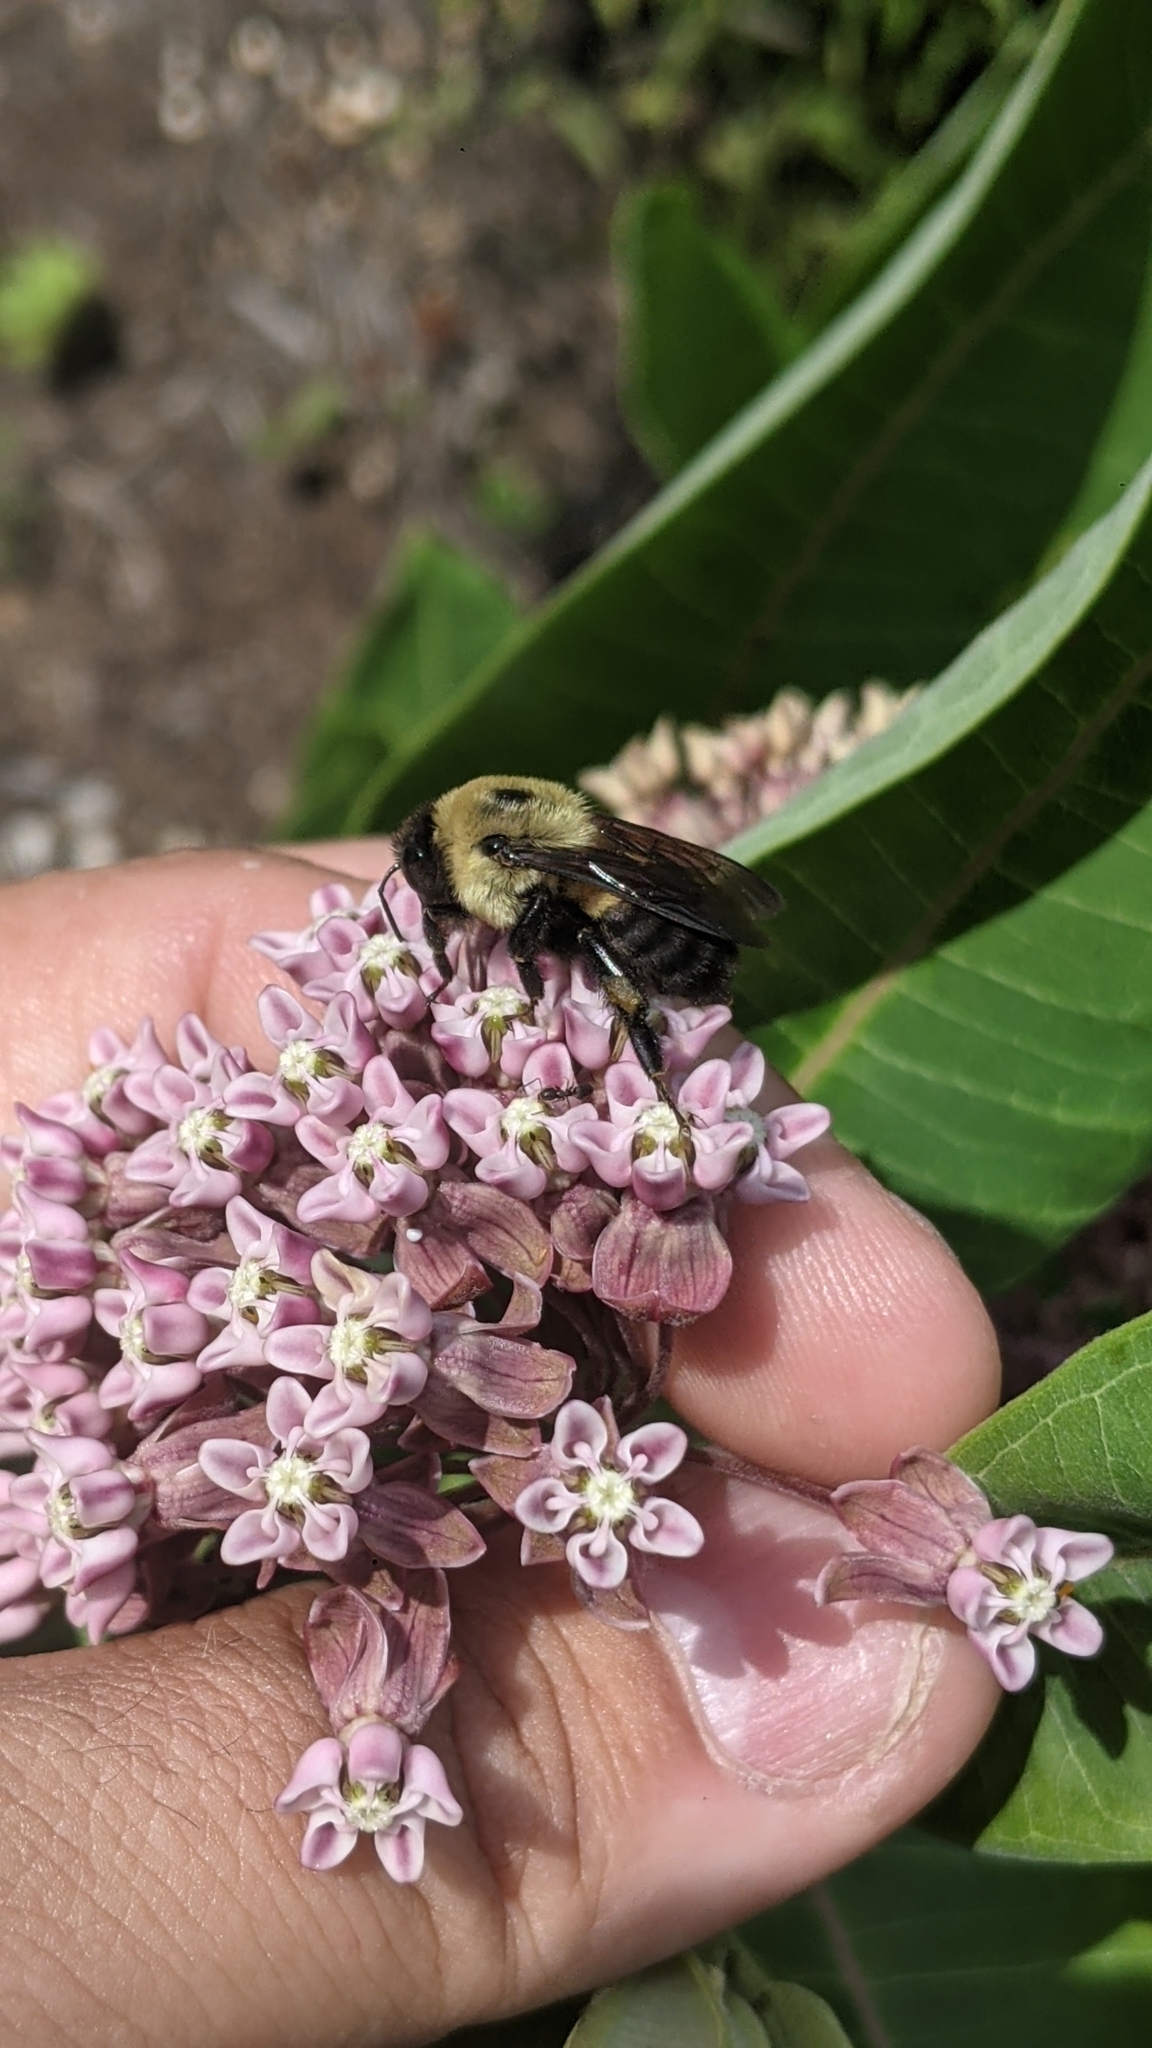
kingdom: Animalia
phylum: Arthropoda
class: Insecta
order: Hymenoptera
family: Apidae
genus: Bombus
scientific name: Bombus griseocollis
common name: Brown-belted bumble bee
